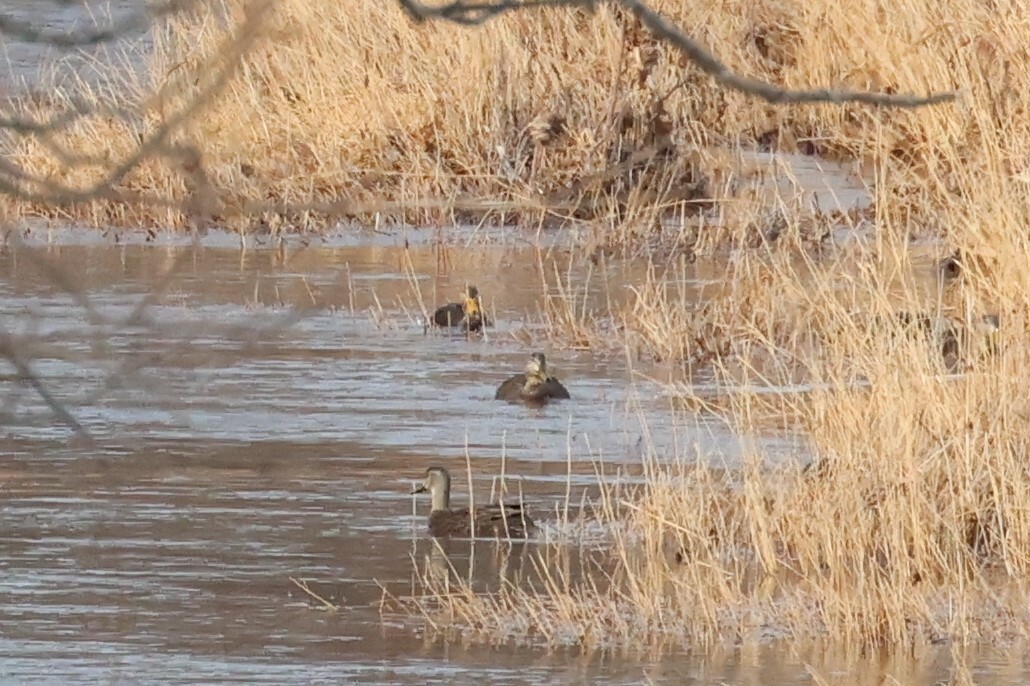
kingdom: Animalia
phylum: Chordata
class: Aves
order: Anseriformes
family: Anatidae
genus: Anas
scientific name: Anas rubripes
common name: American black duck
